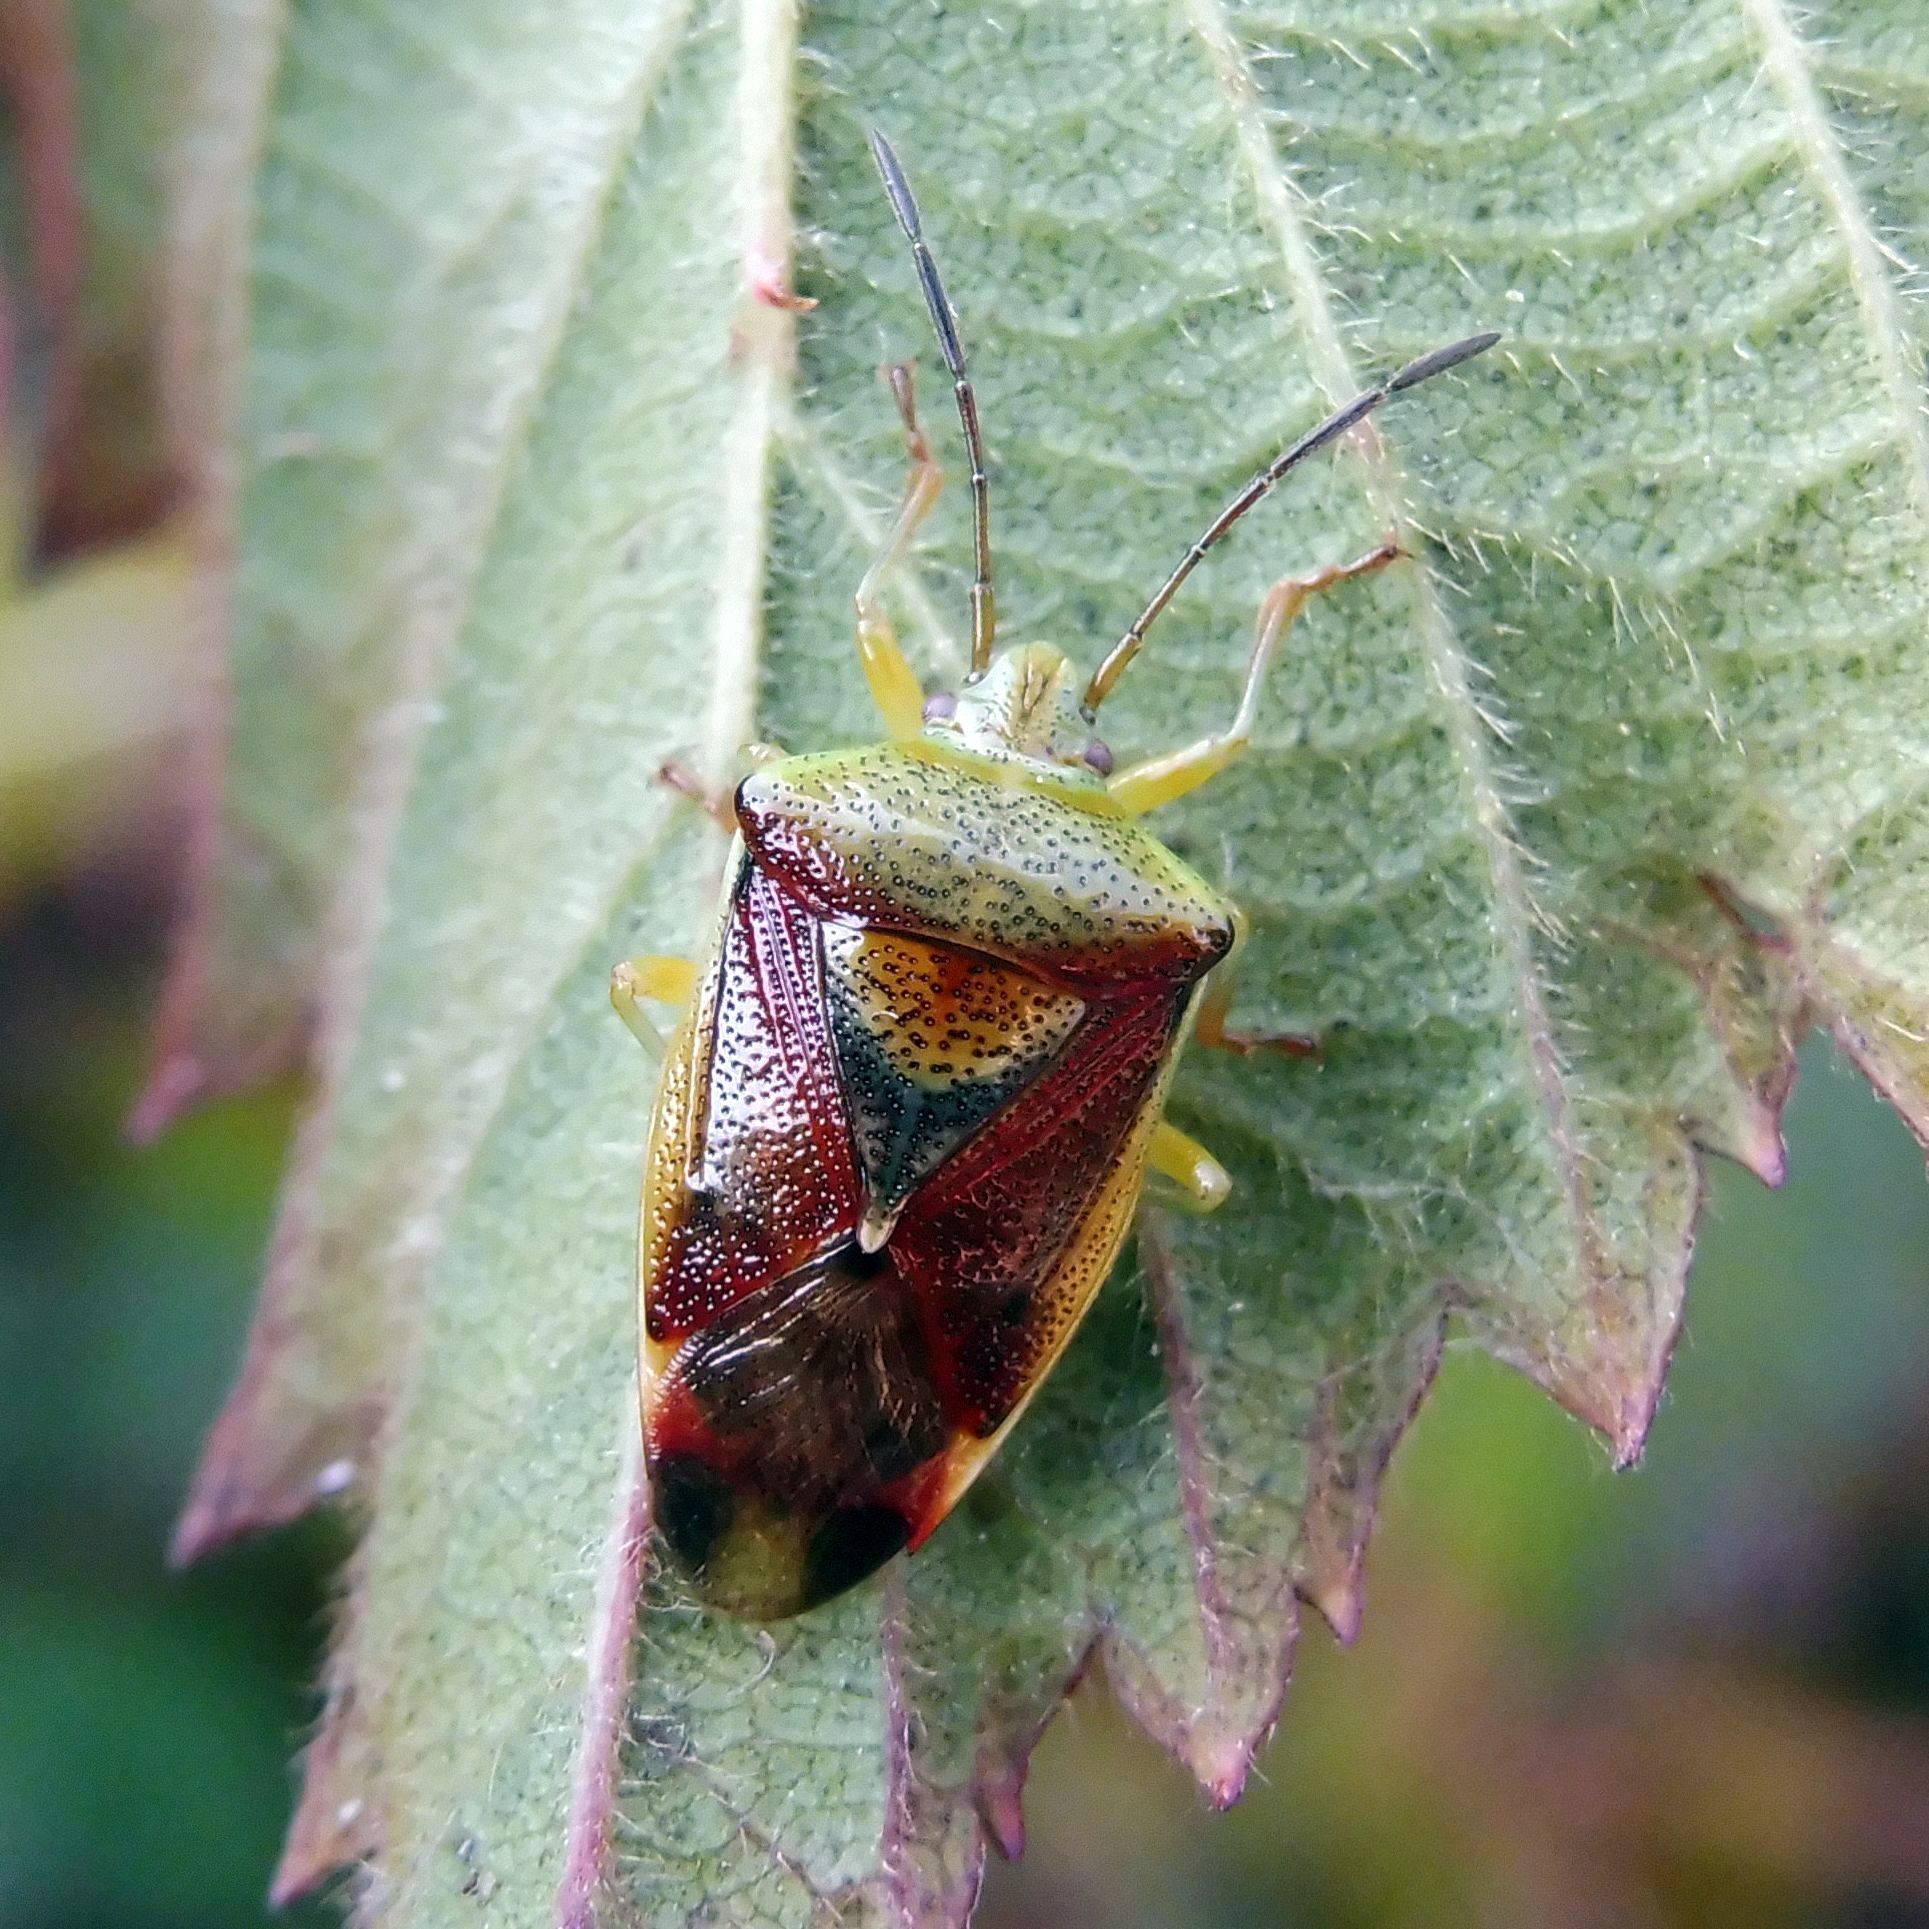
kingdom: Animalia
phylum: Arthropoda
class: Insecta
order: Hemiptera
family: Acanthosomatidae
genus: Elasmostethus
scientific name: Elasmostethus interstinctus
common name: Birch shieldbug
